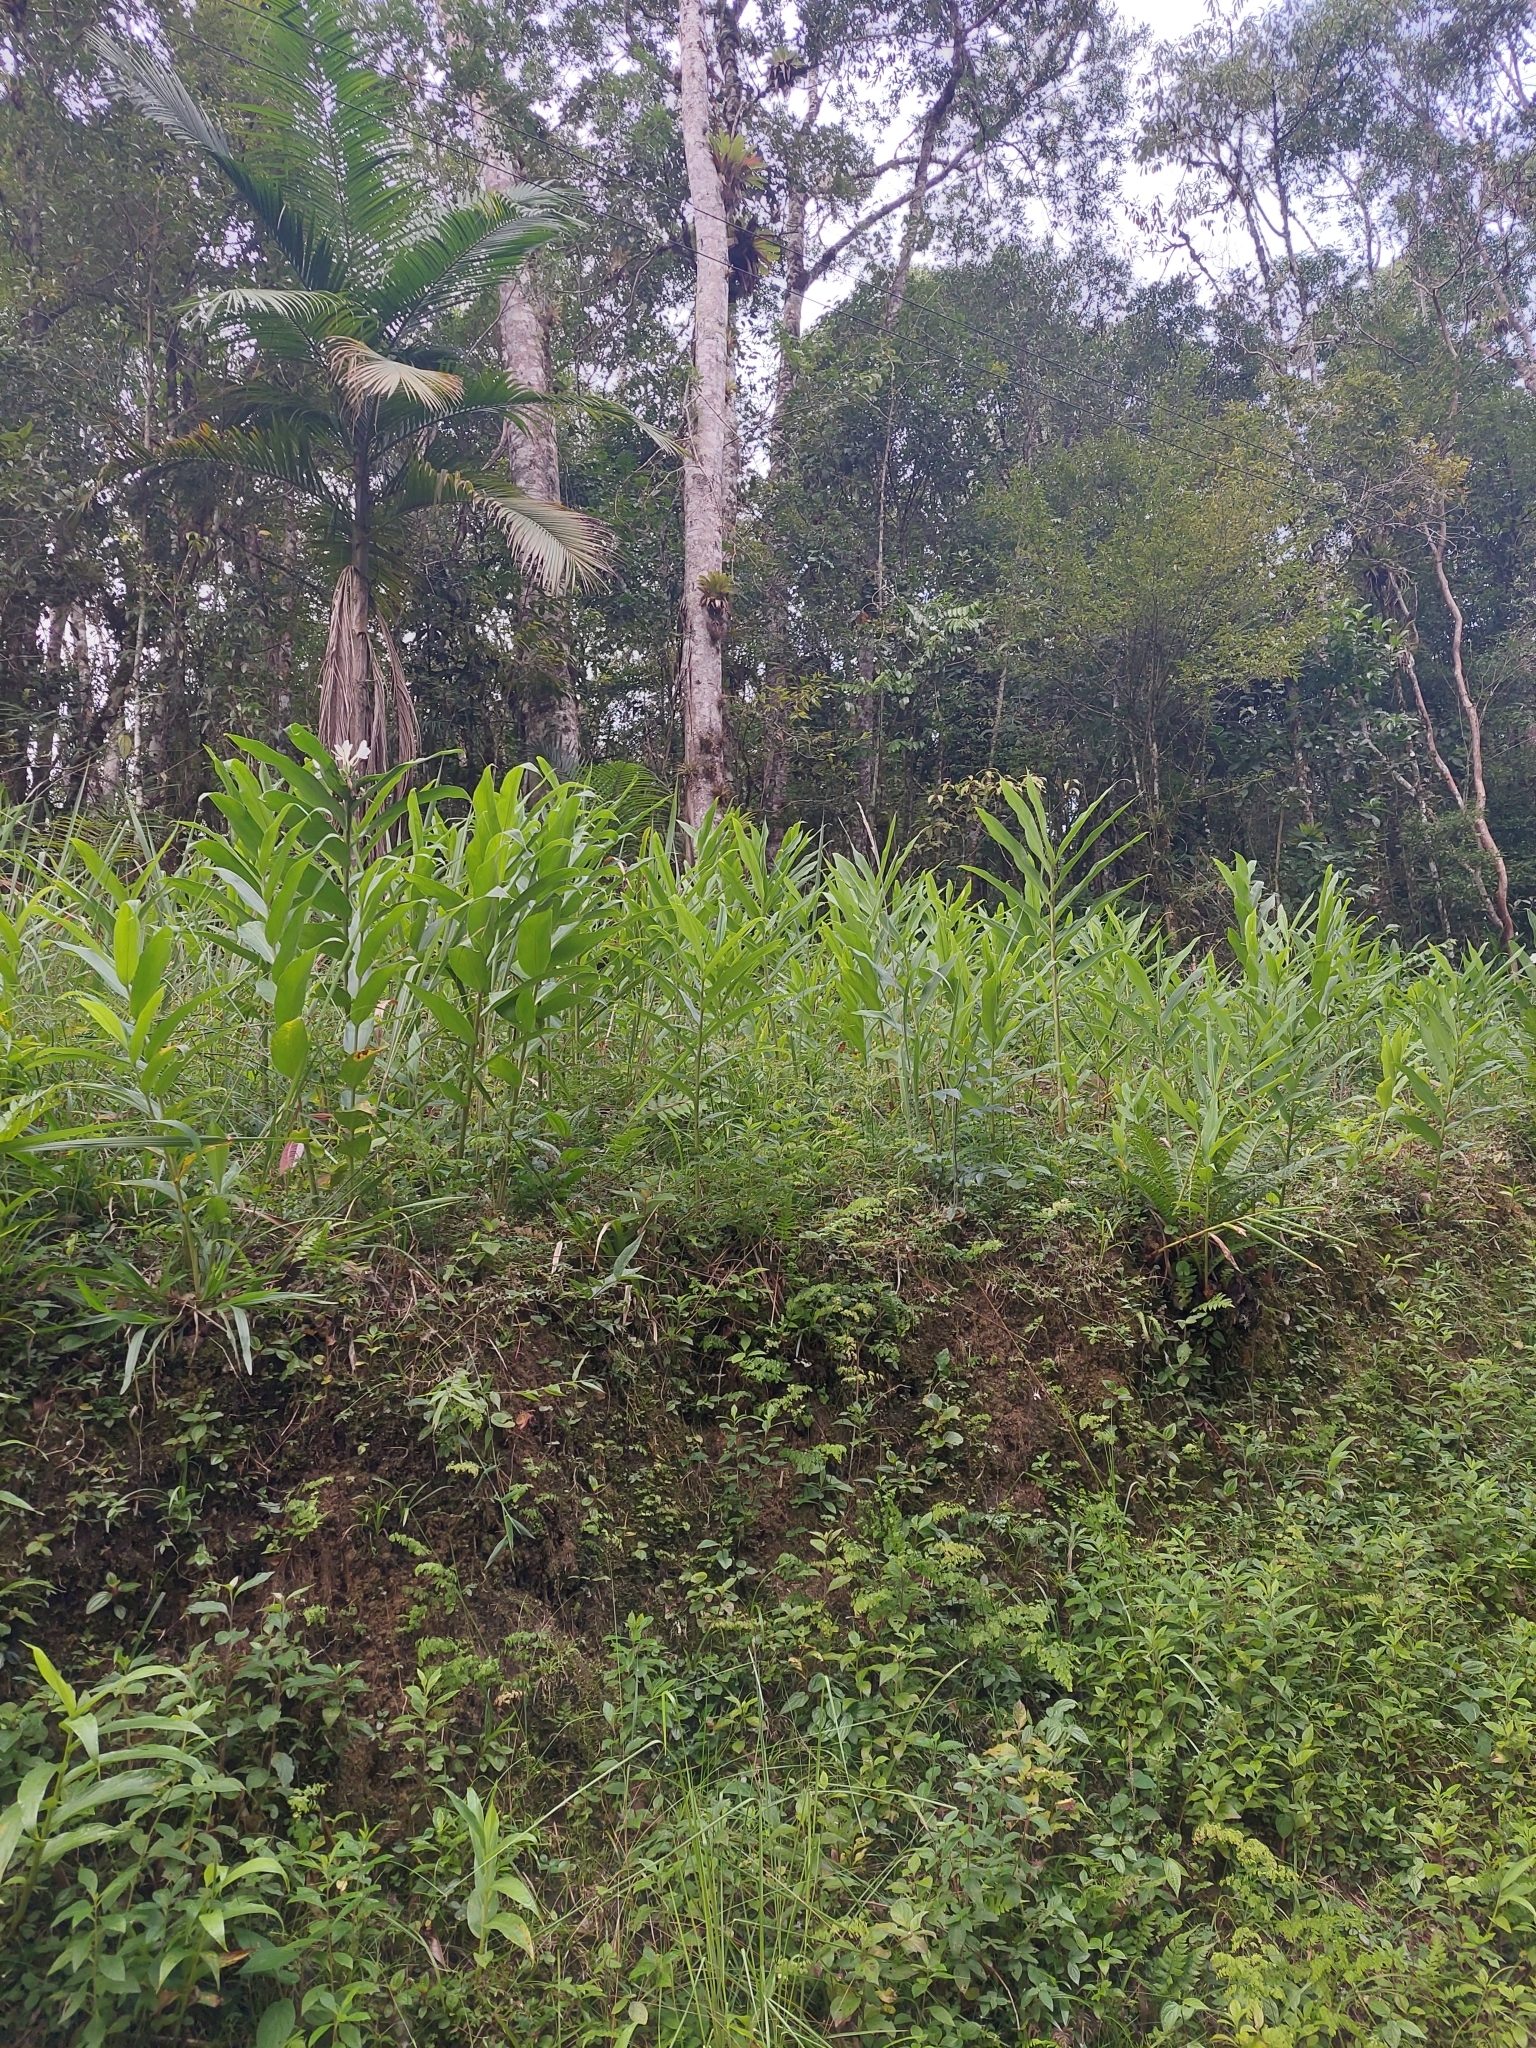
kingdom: Plantae
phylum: Tracheophyta
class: Liliopsida
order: Zingiberales
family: Zingiberaceae
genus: Hedychium
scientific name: Hedychium coronarium
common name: White garland-lily
